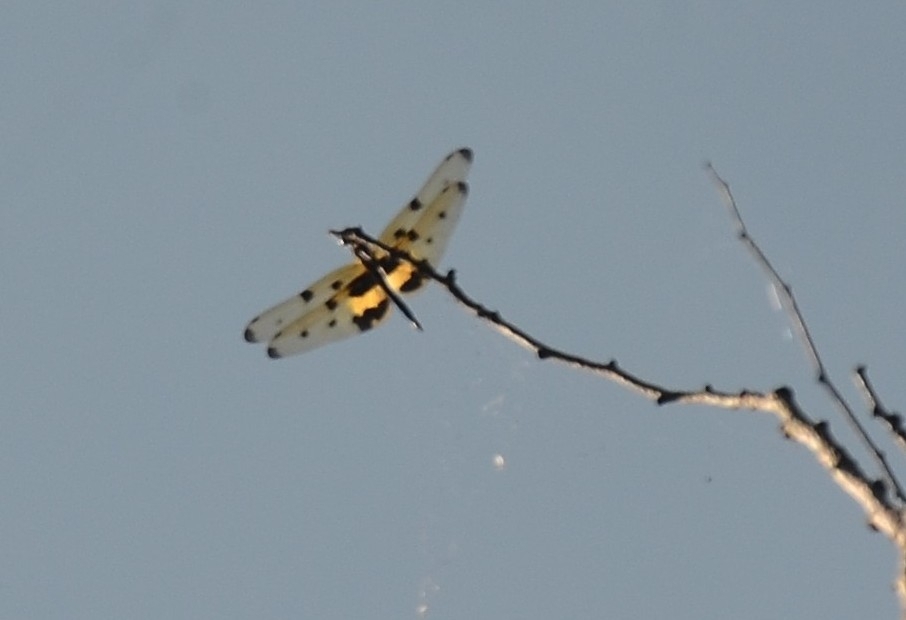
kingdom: Animalia
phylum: Arthropoda
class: Insecta
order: Odonata
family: Libellulidae
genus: Rhyothemis
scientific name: Rhyothemis variegata
